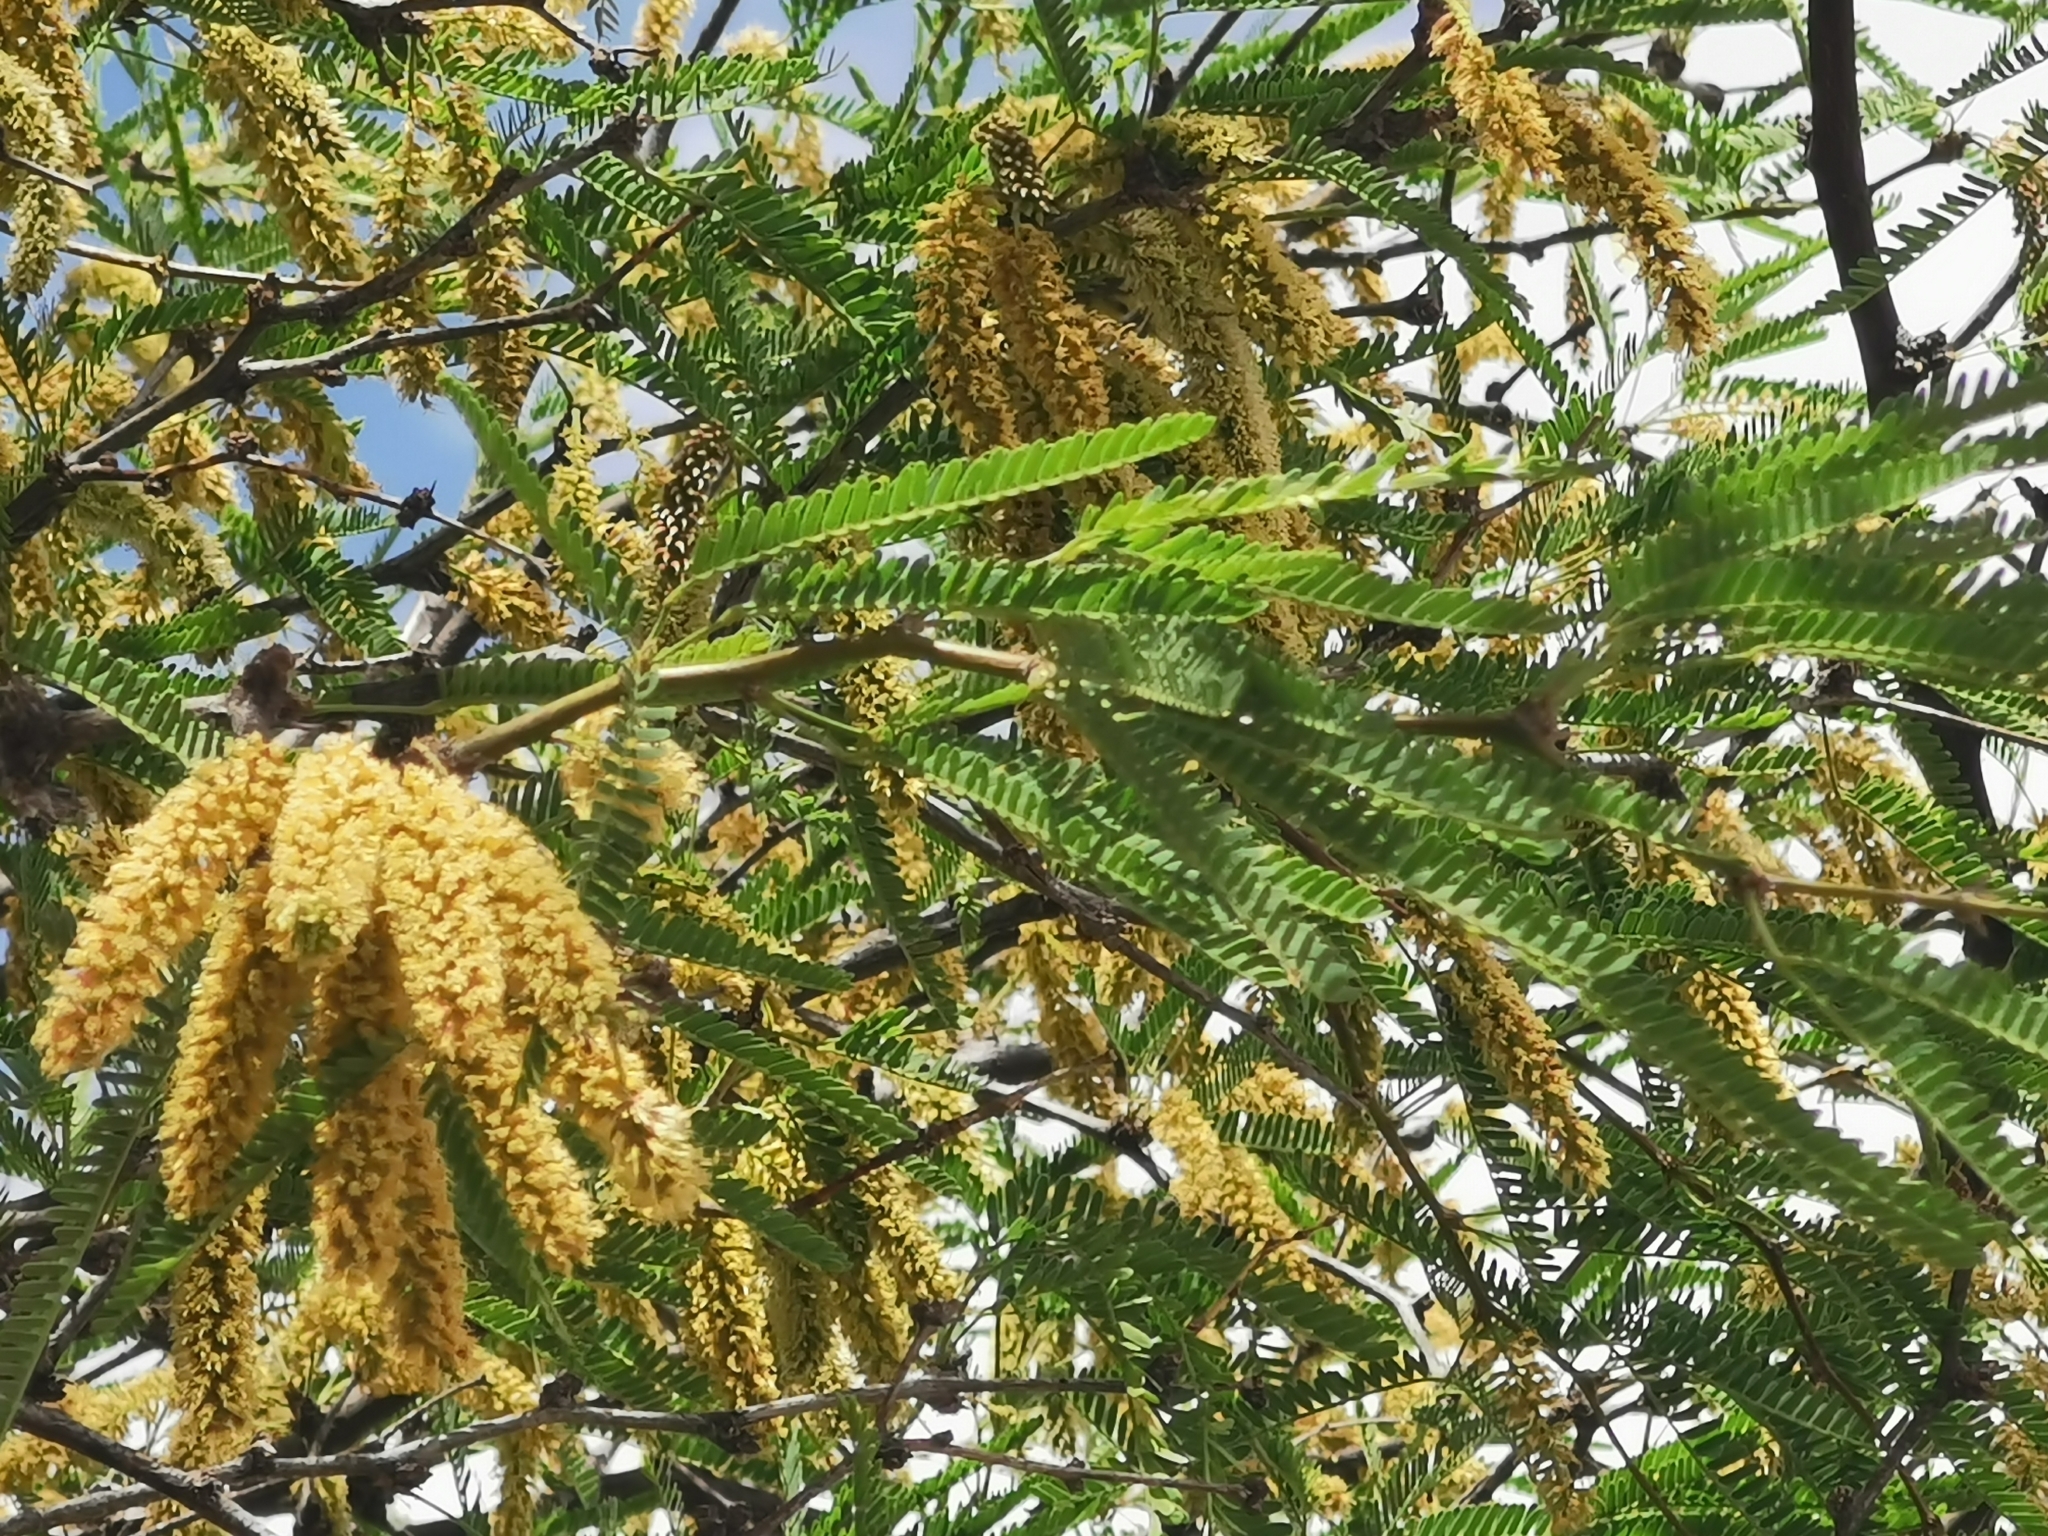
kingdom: Plantae
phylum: Tracheophyta
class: Magnoliopsida
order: Fabales
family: Fabaceae
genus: Prosopis
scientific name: Prosopis laevigata
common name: Smooth mesquite
